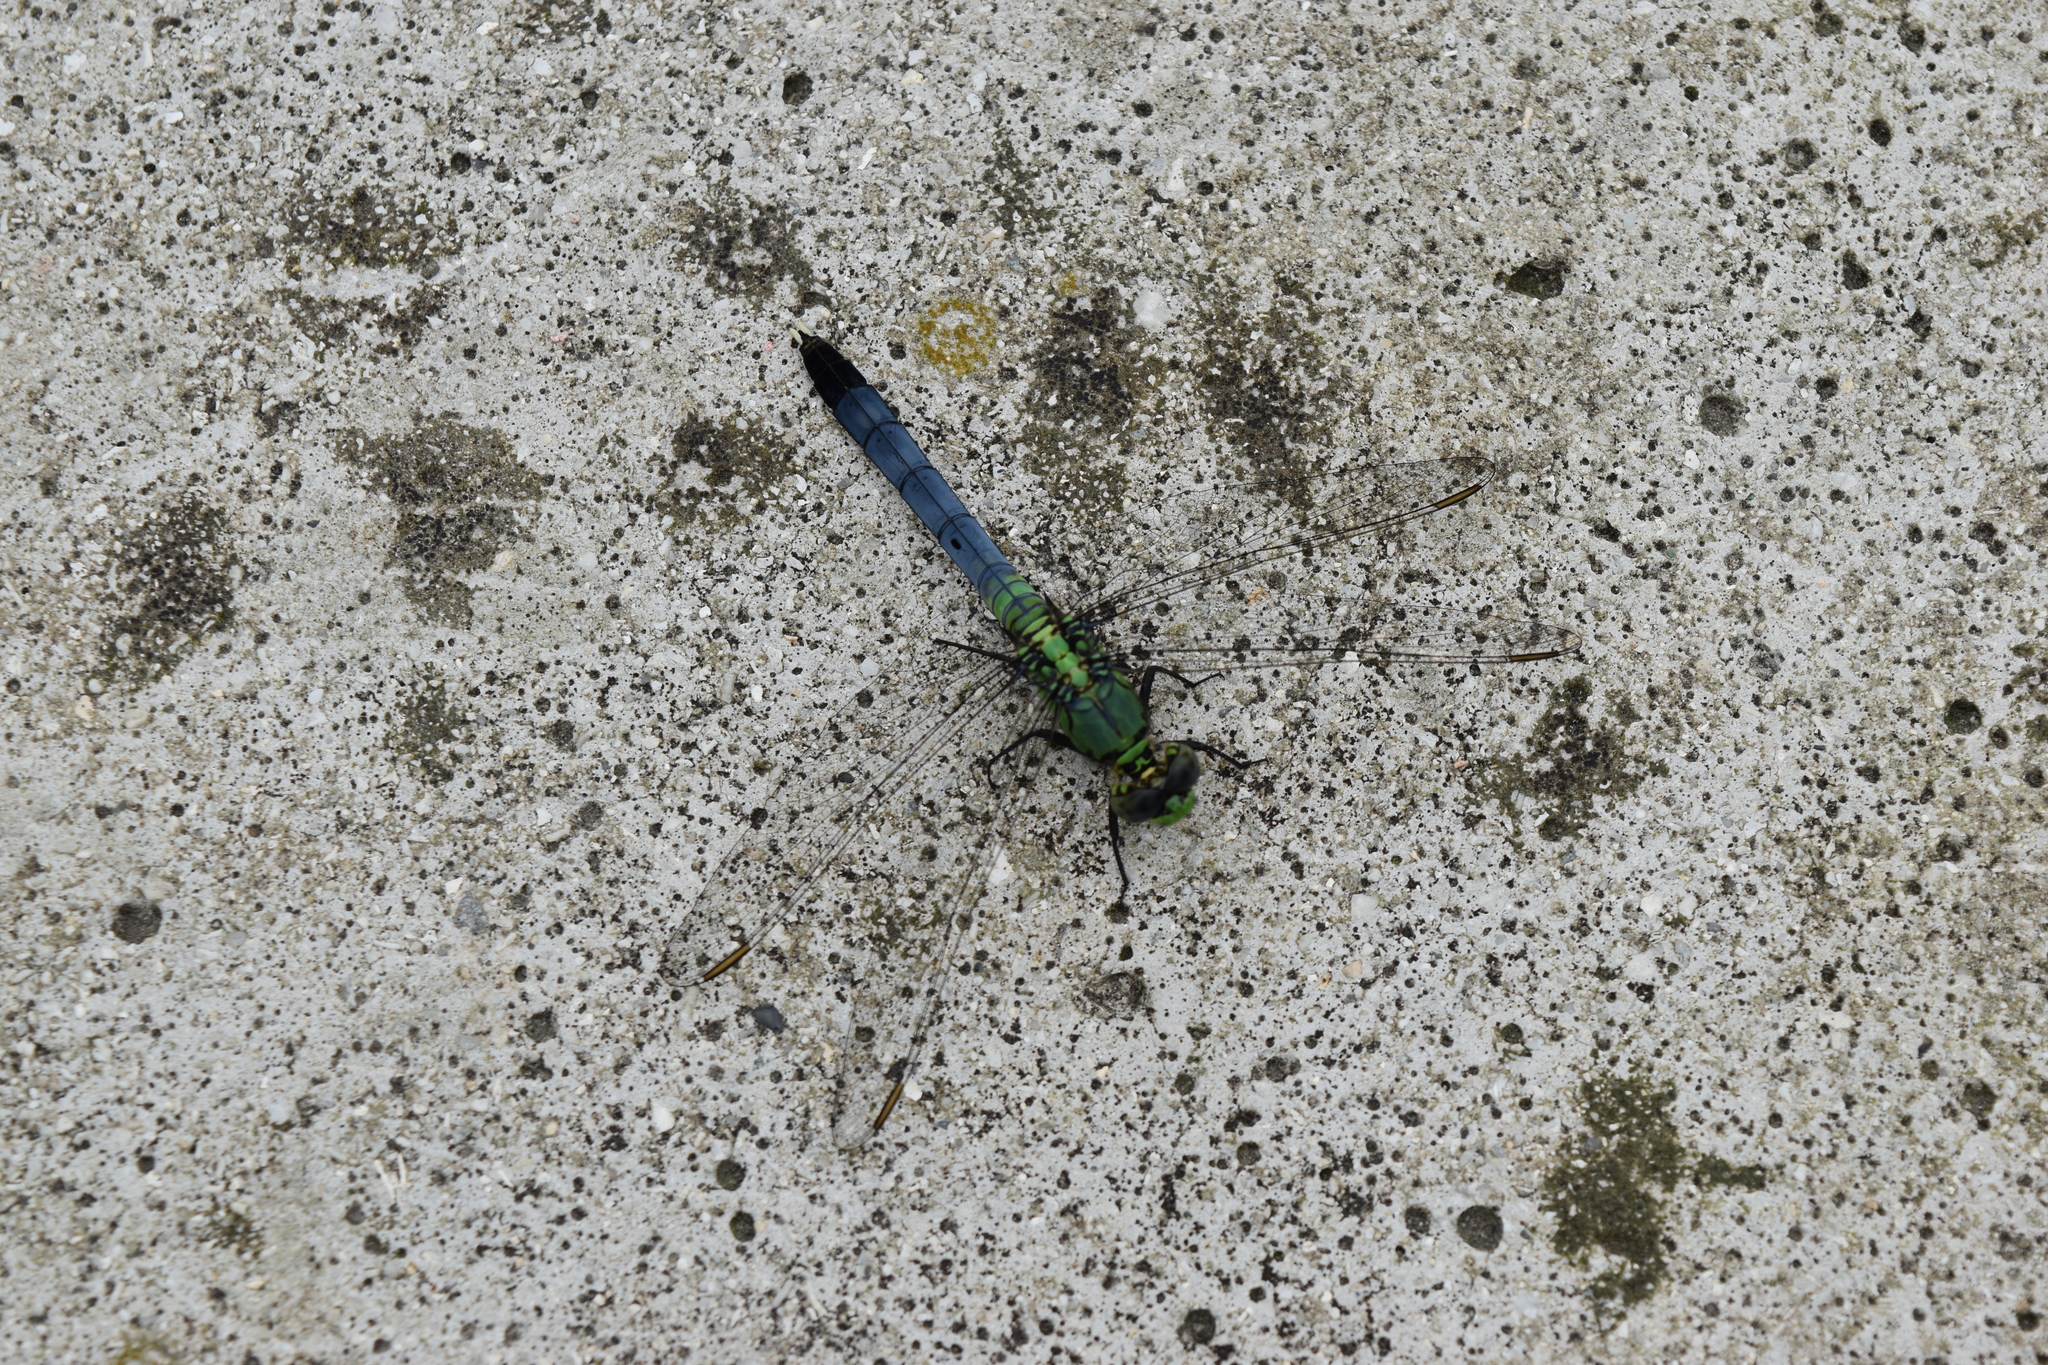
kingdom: Animalia
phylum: Arthropoda
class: Insecta
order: Odonata
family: Libellulidae
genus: Erythemis
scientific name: Erythemis simplicicollis
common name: Eastern pondhawk
